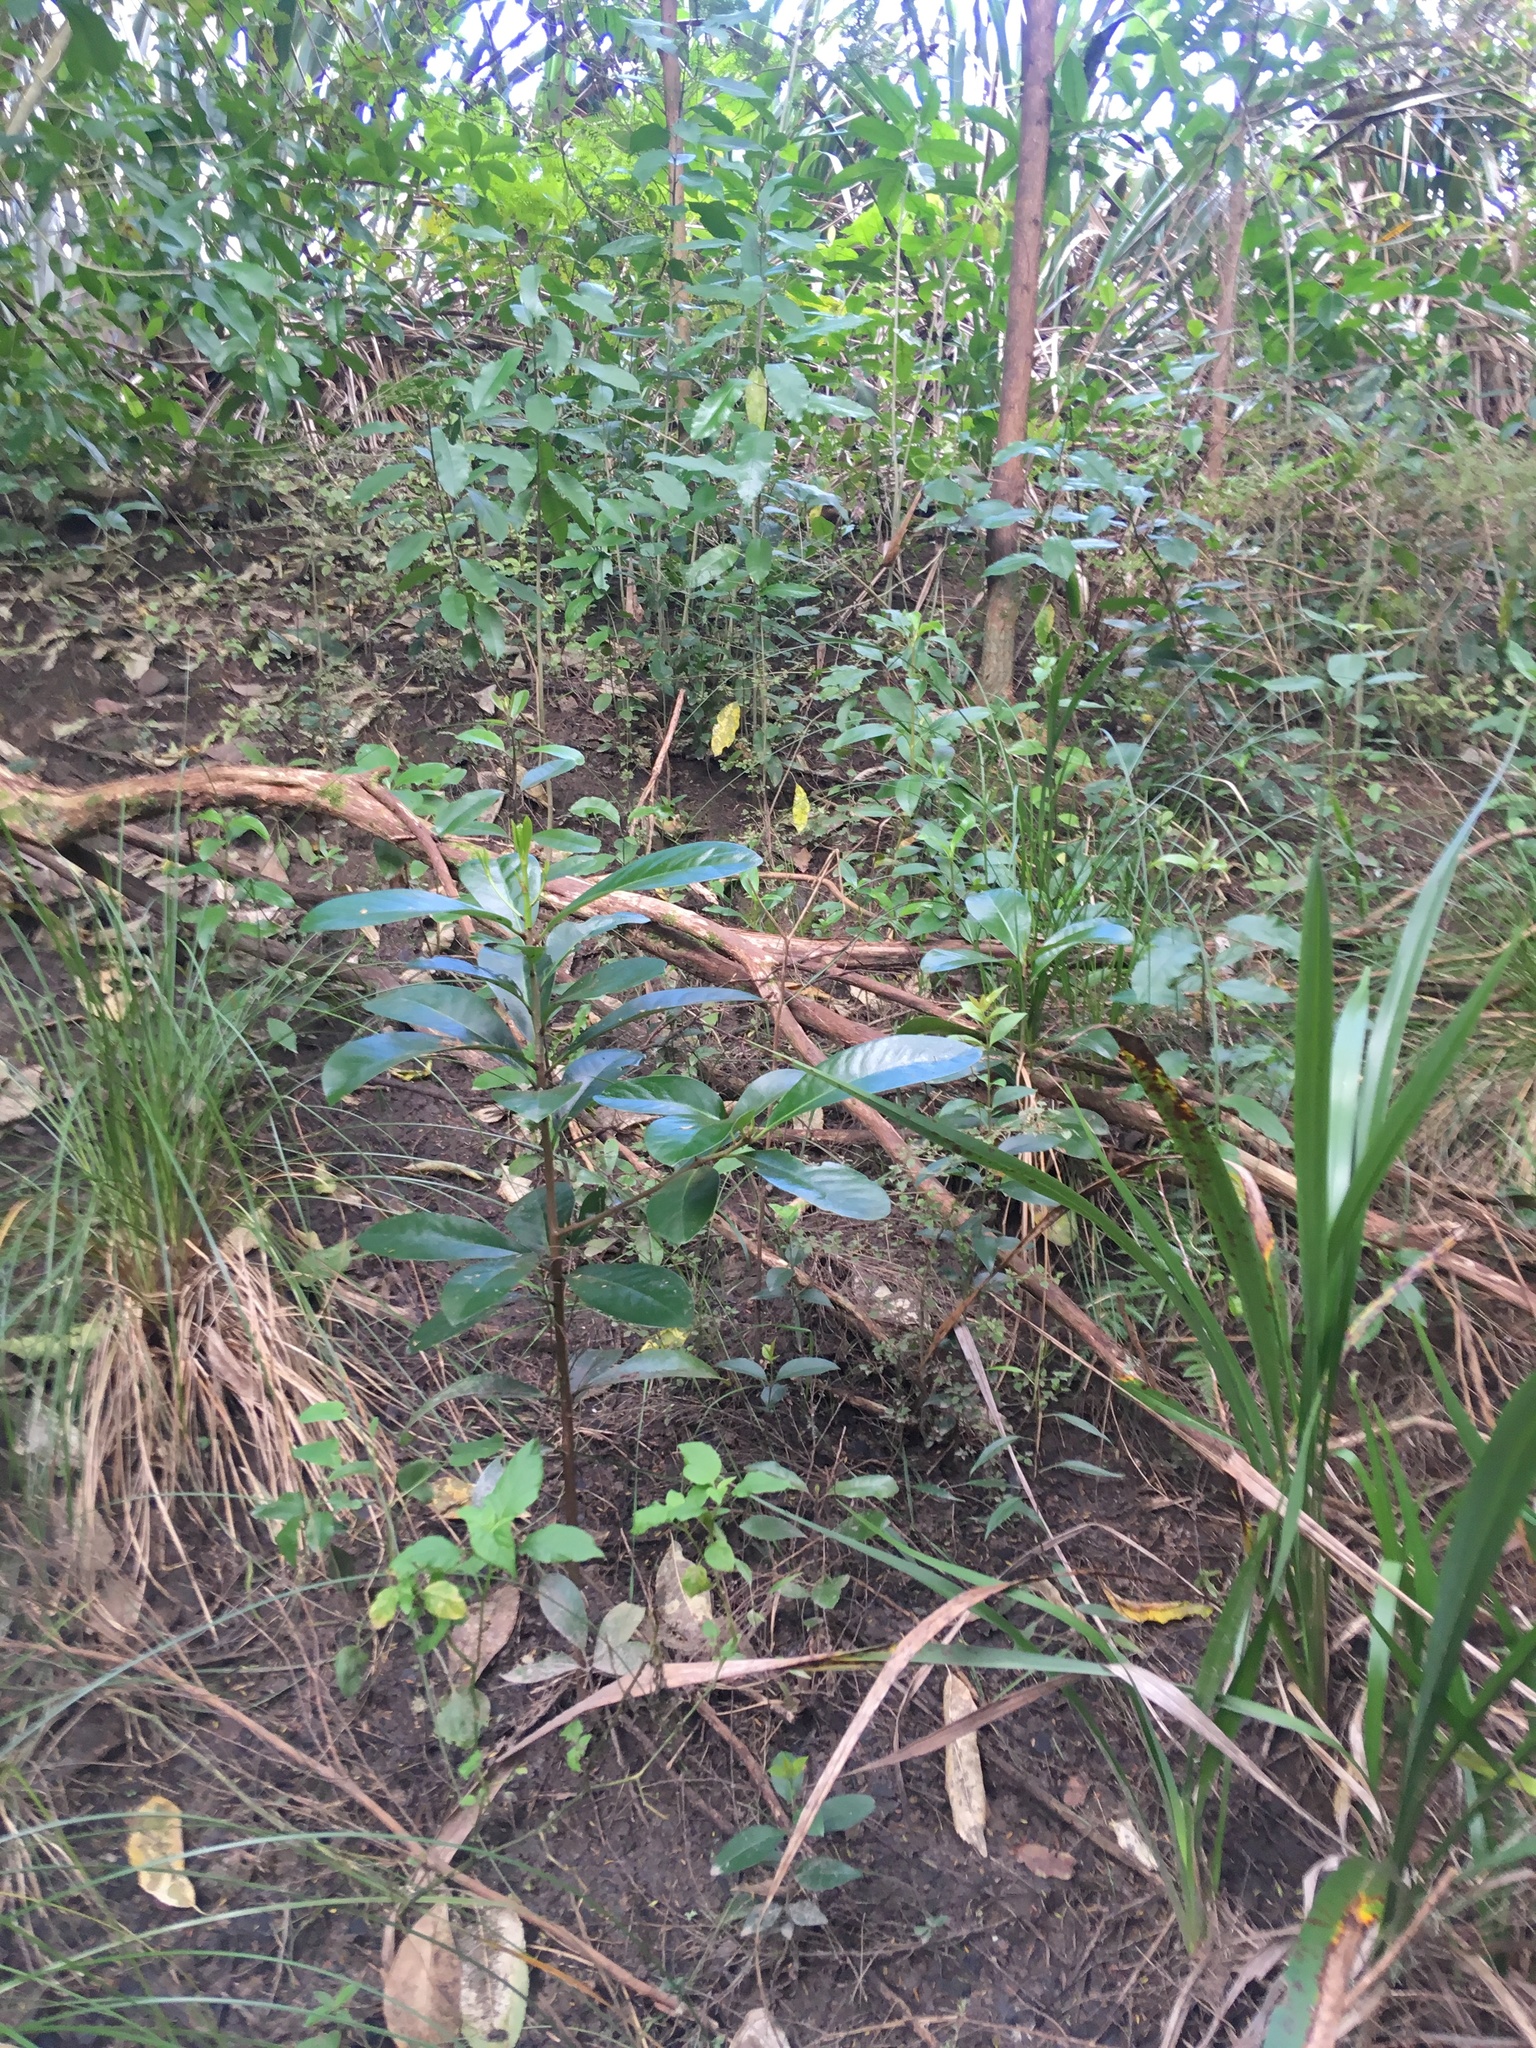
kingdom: Plantae
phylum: Tracheophyta
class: Magnoliopsida
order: Cucurbitales
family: Corynocarpaceae
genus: Corynocarpus
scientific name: Corynocarpus laevigatus
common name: New zealand laurel
